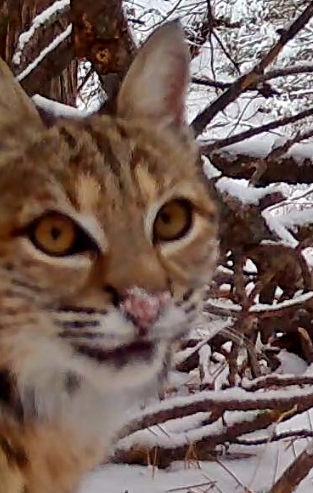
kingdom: Animalia
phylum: Chordata
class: Mammalia
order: Carnivora
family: Felidae
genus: Lynx
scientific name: Lynx rufus
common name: Bobcat
